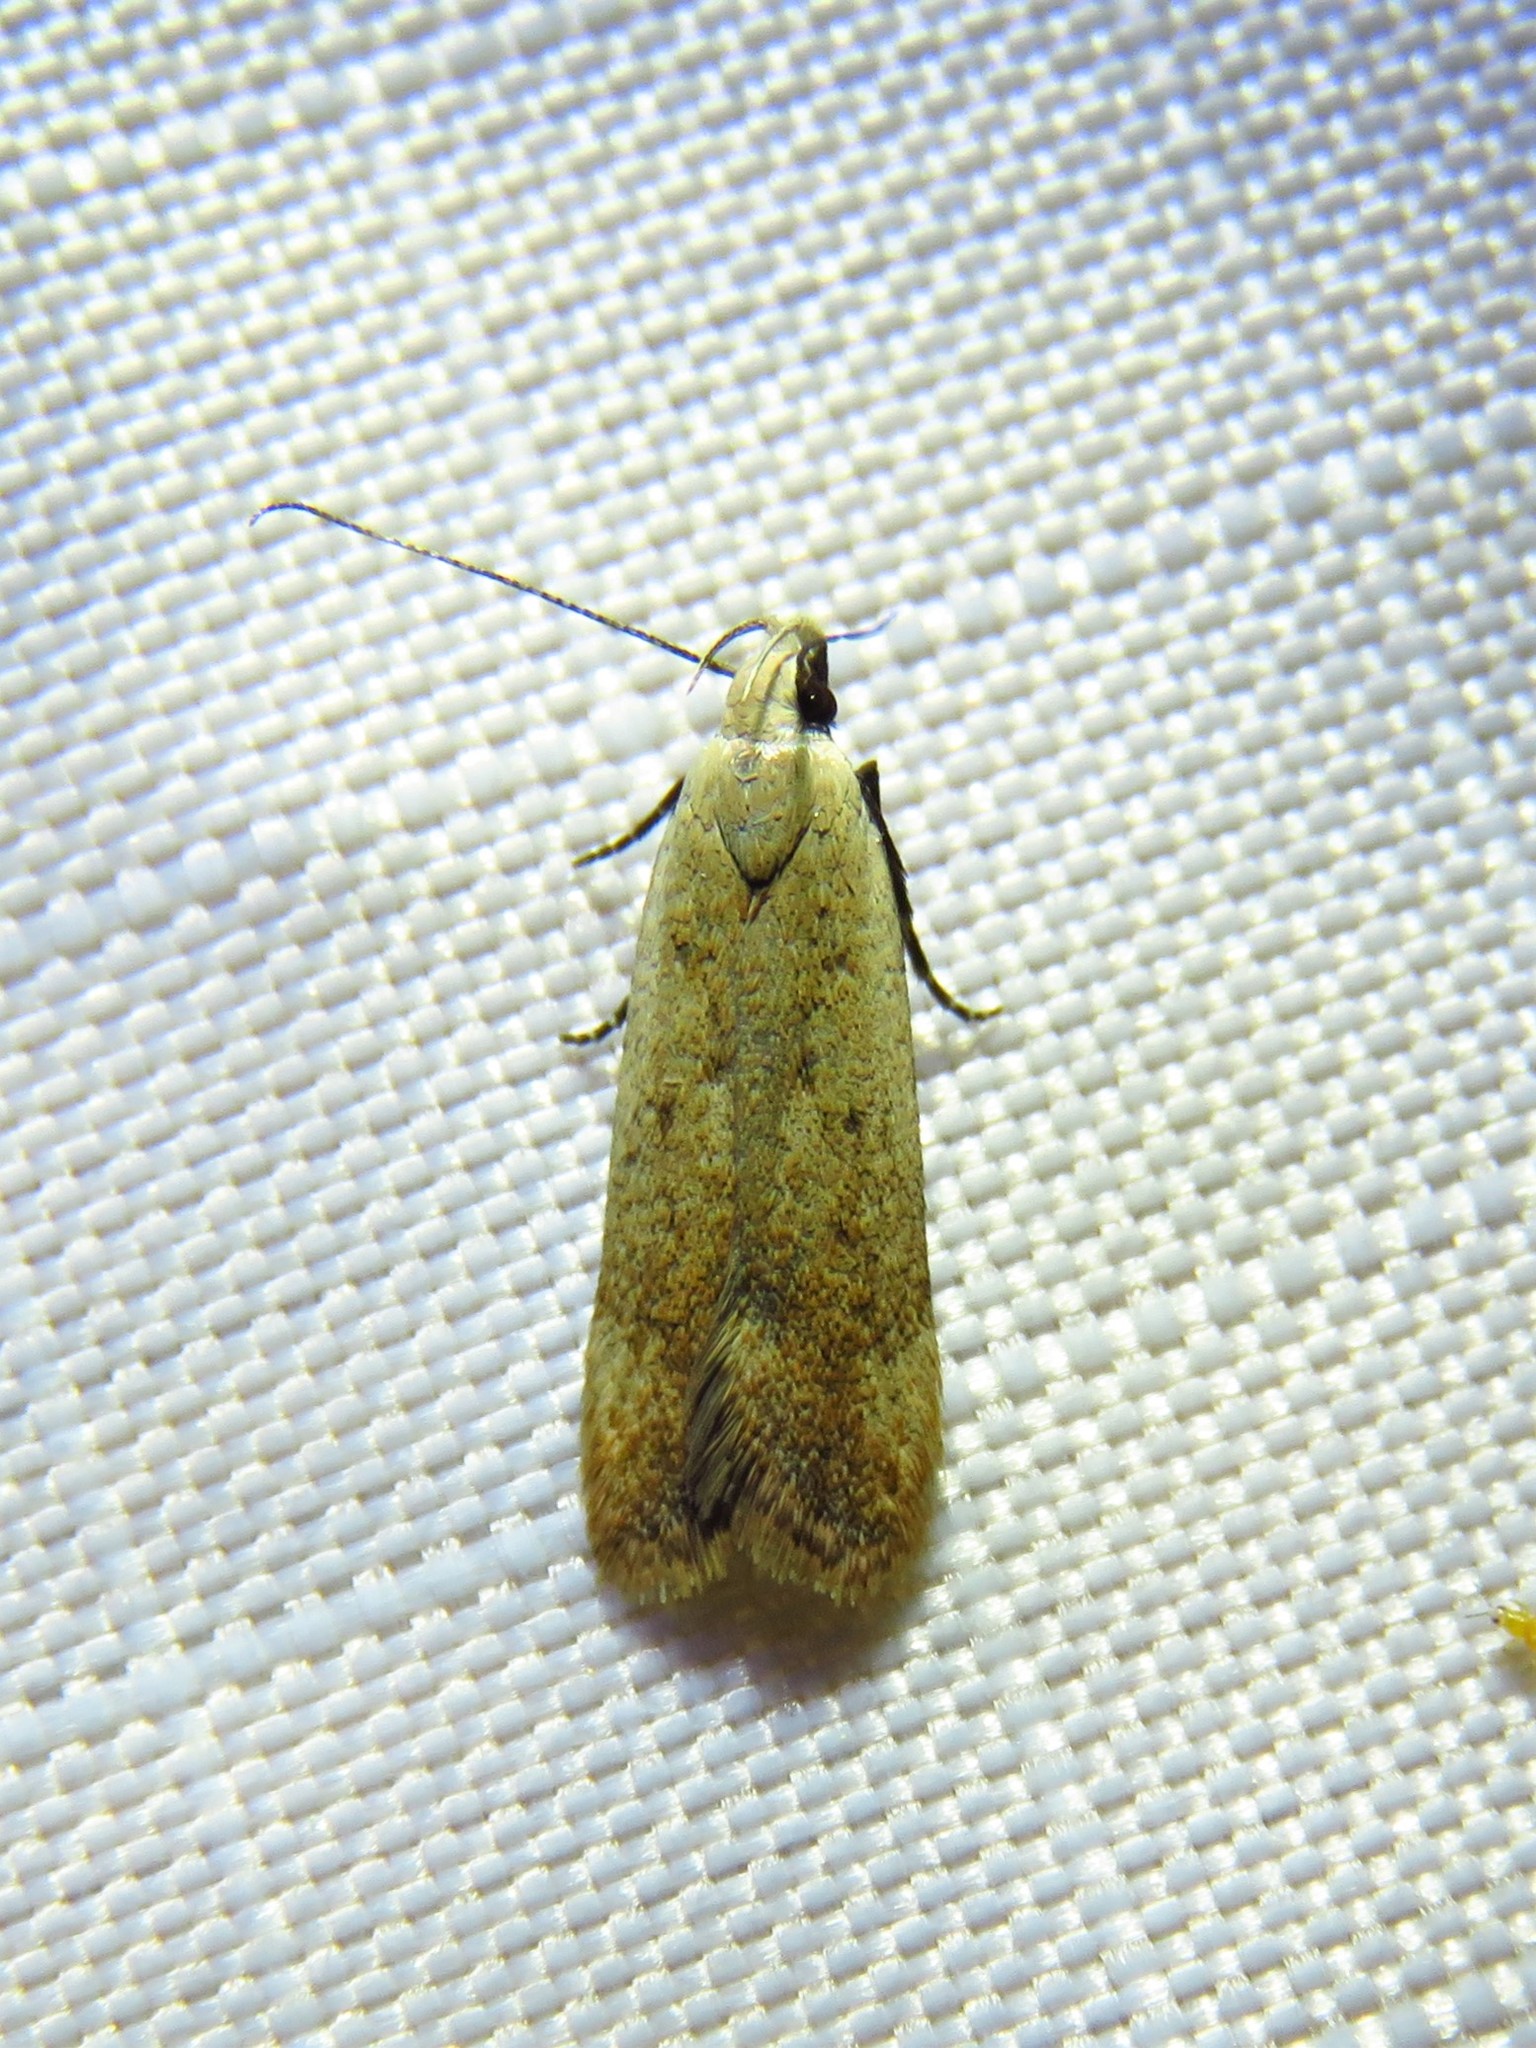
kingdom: Animalia
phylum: Arthropoda
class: Insecta
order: Lepidoptera
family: Gelechiidae
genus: Anacampsis
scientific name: Anacampsis fullonella
